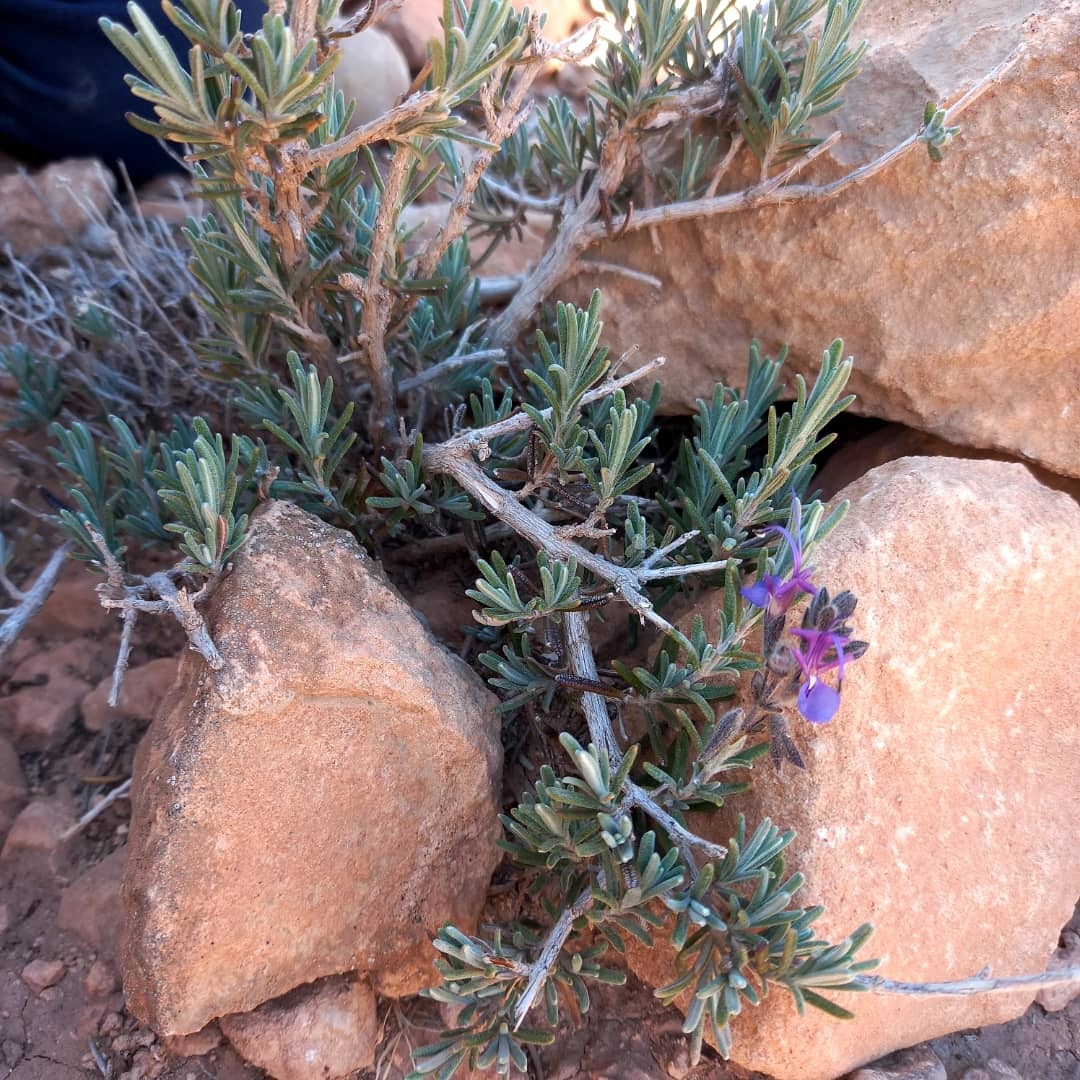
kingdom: Plantae
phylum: Tracheophyta
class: Magnoliopsida
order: Lamiales
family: Lamiaceae
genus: Salvia
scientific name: Salvia jordanii
